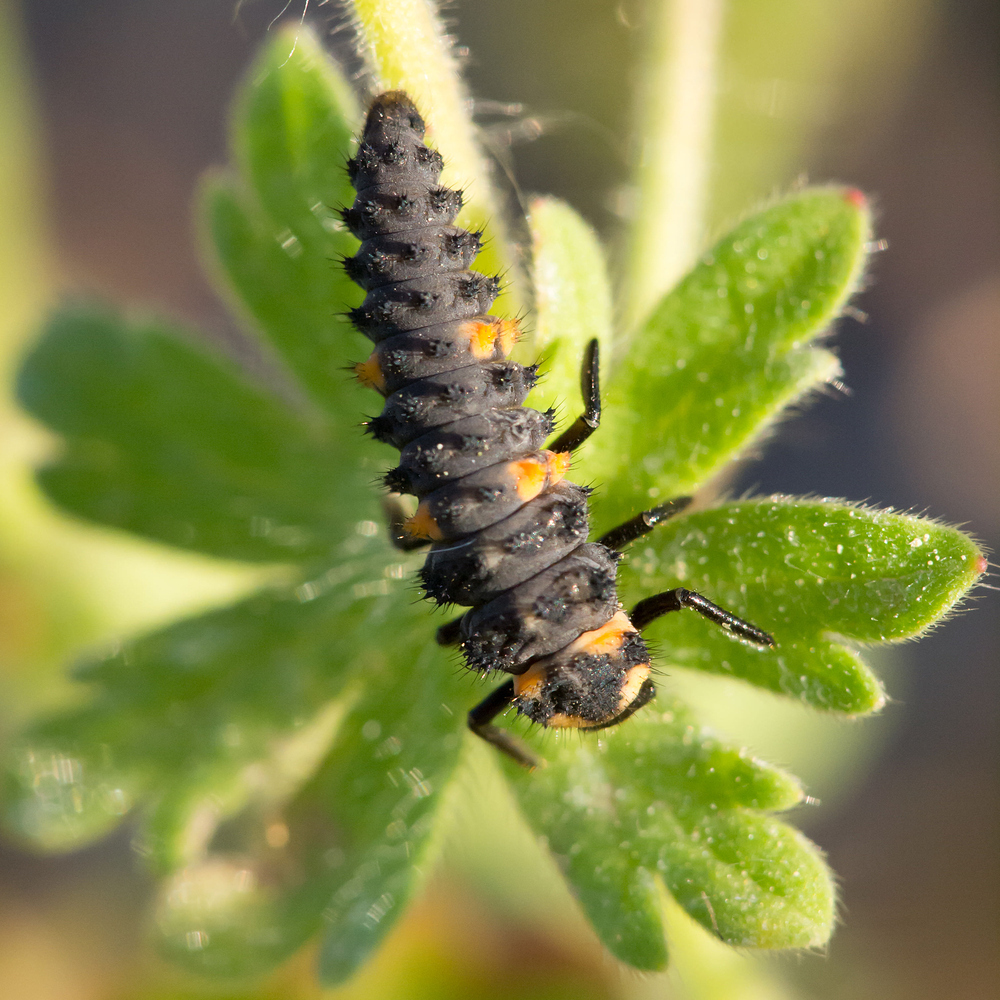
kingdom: Animalia
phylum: Arthropoda
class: Insecta
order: Coleoptera
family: Coccinellidae
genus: Coccinella
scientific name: Coccinella septempunctata
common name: Sevenspotted lady beetle
